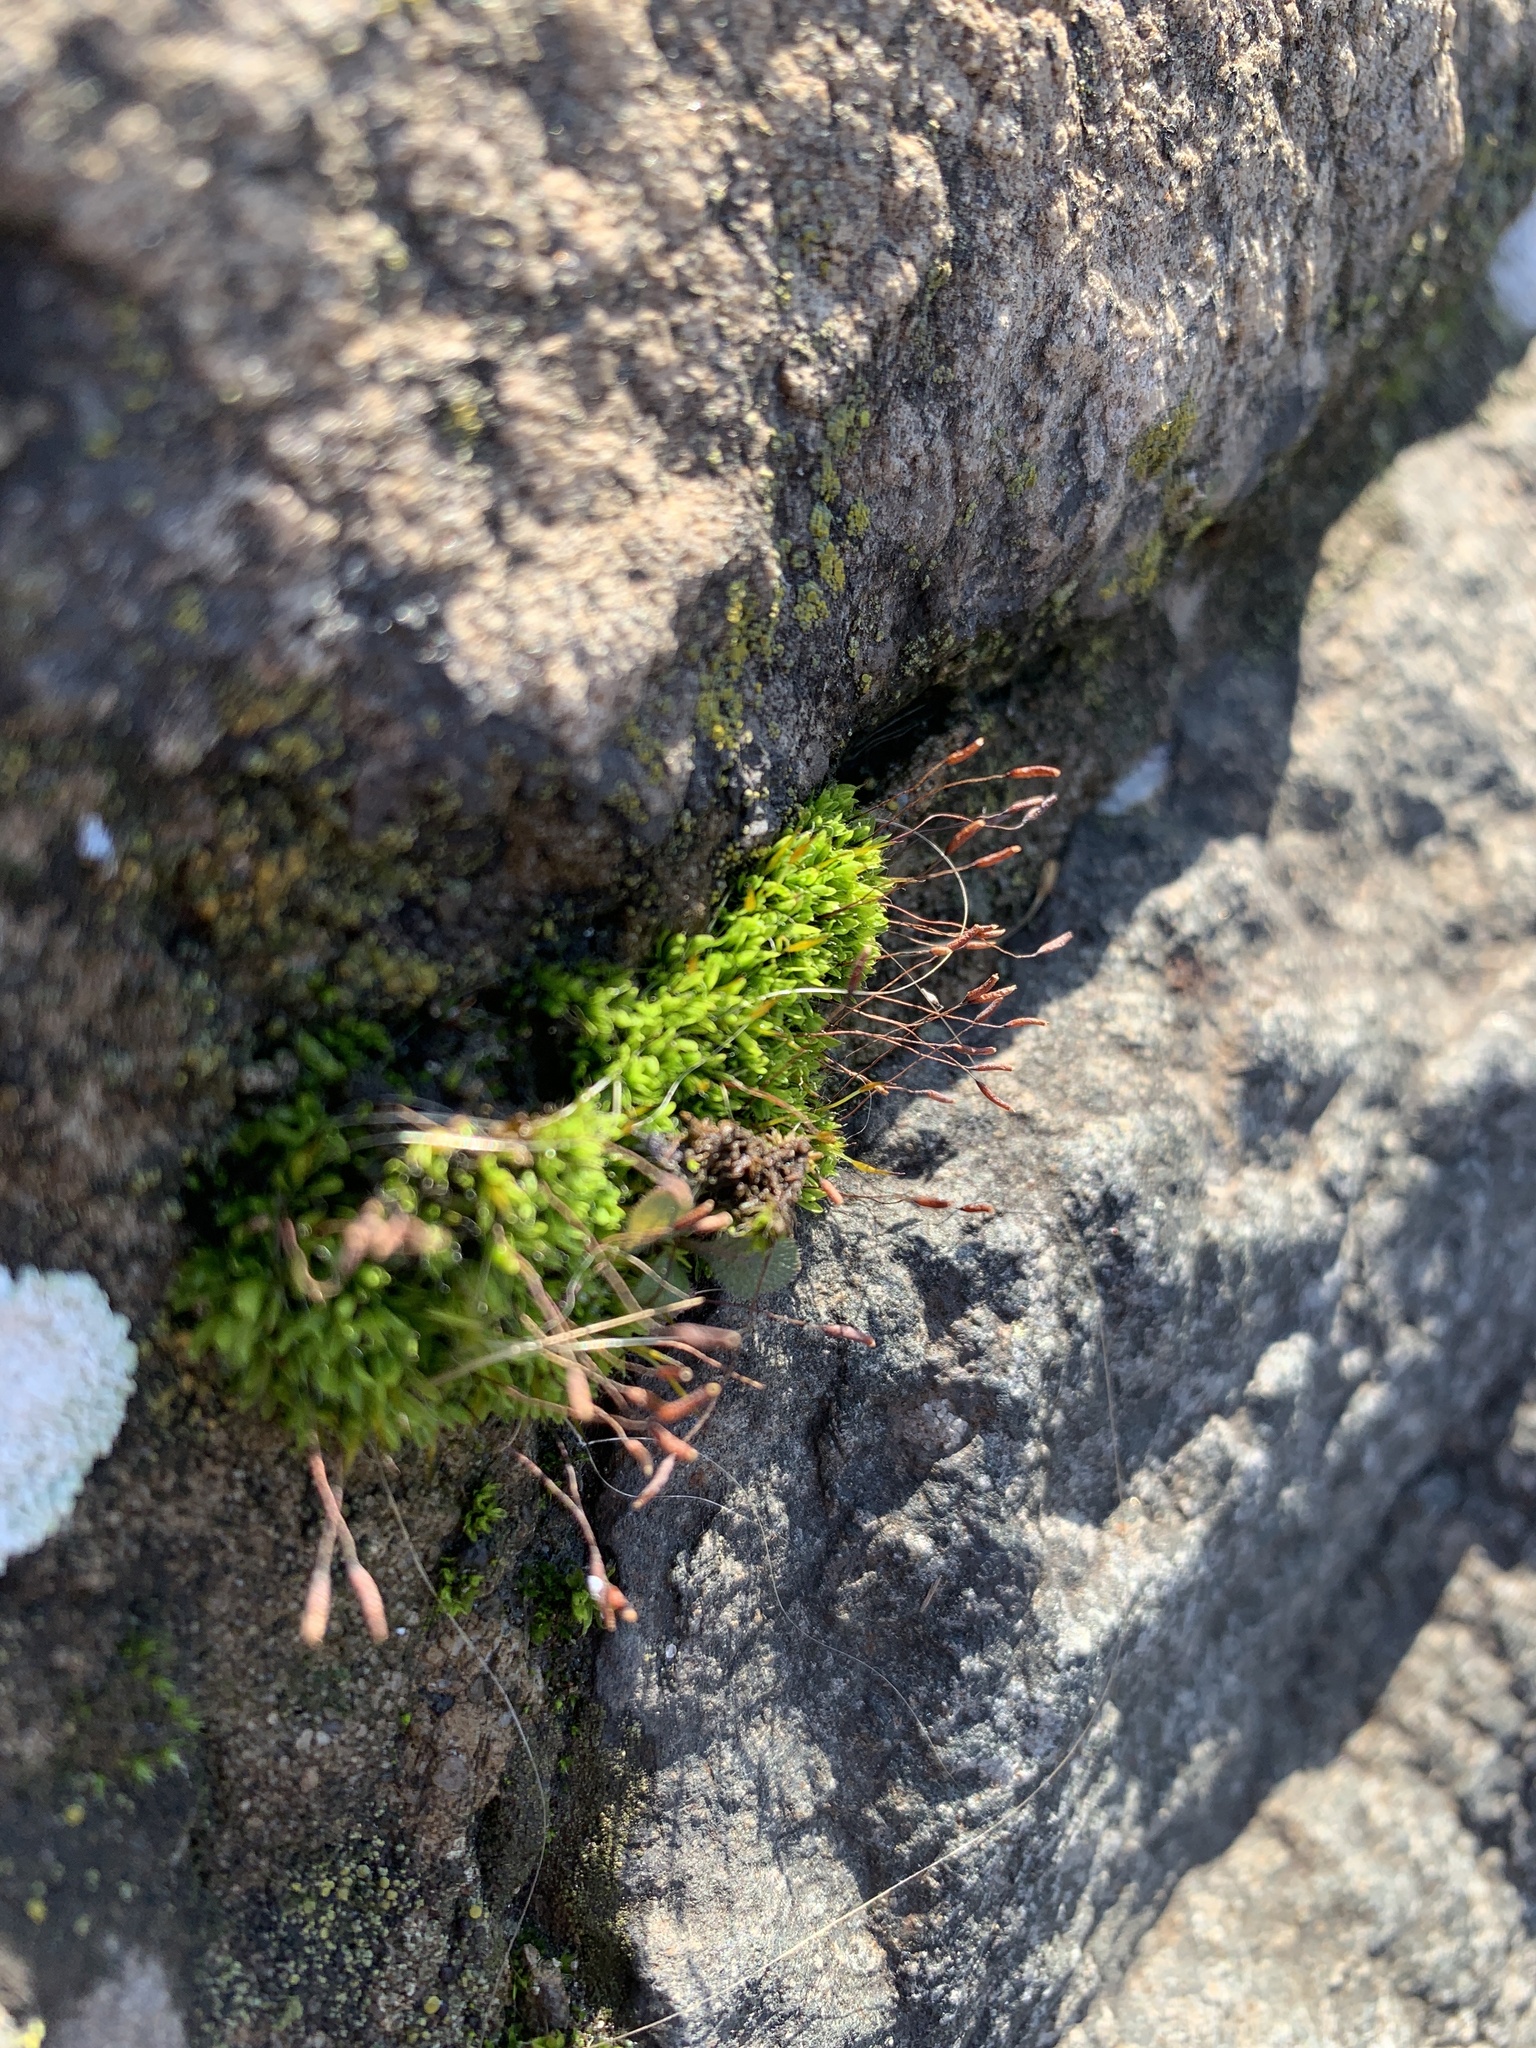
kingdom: Plantae
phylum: Bryophyta
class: Bryopsida
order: Pottiales
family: Pottiaceae
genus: Tortula
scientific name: Tortula muralis
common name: Wall screw-moss
